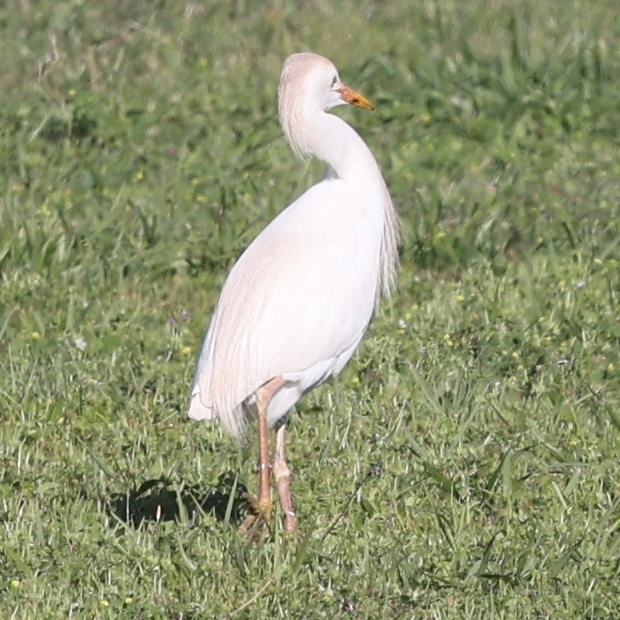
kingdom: Animalia
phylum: Chordata
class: Aves
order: Pelecaniformes
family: Ardeidae
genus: Bubulcus
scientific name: Bubulcus ibis
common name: Cattle egret
